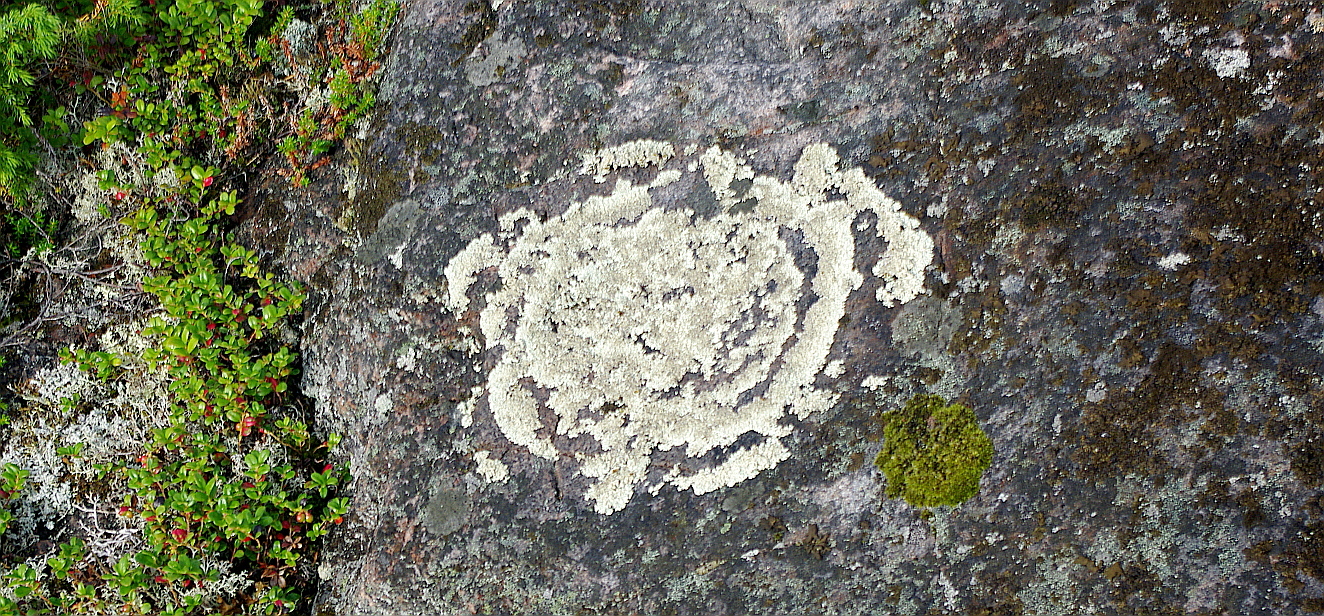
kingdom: Fungi
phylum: Ascomycota
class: Lecanoromycetes
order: Lecanorales
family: Parmeliaceae
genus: Arctoparmelia
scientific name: Arctoparmelia centrifuga
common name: Concentric ring lichen
